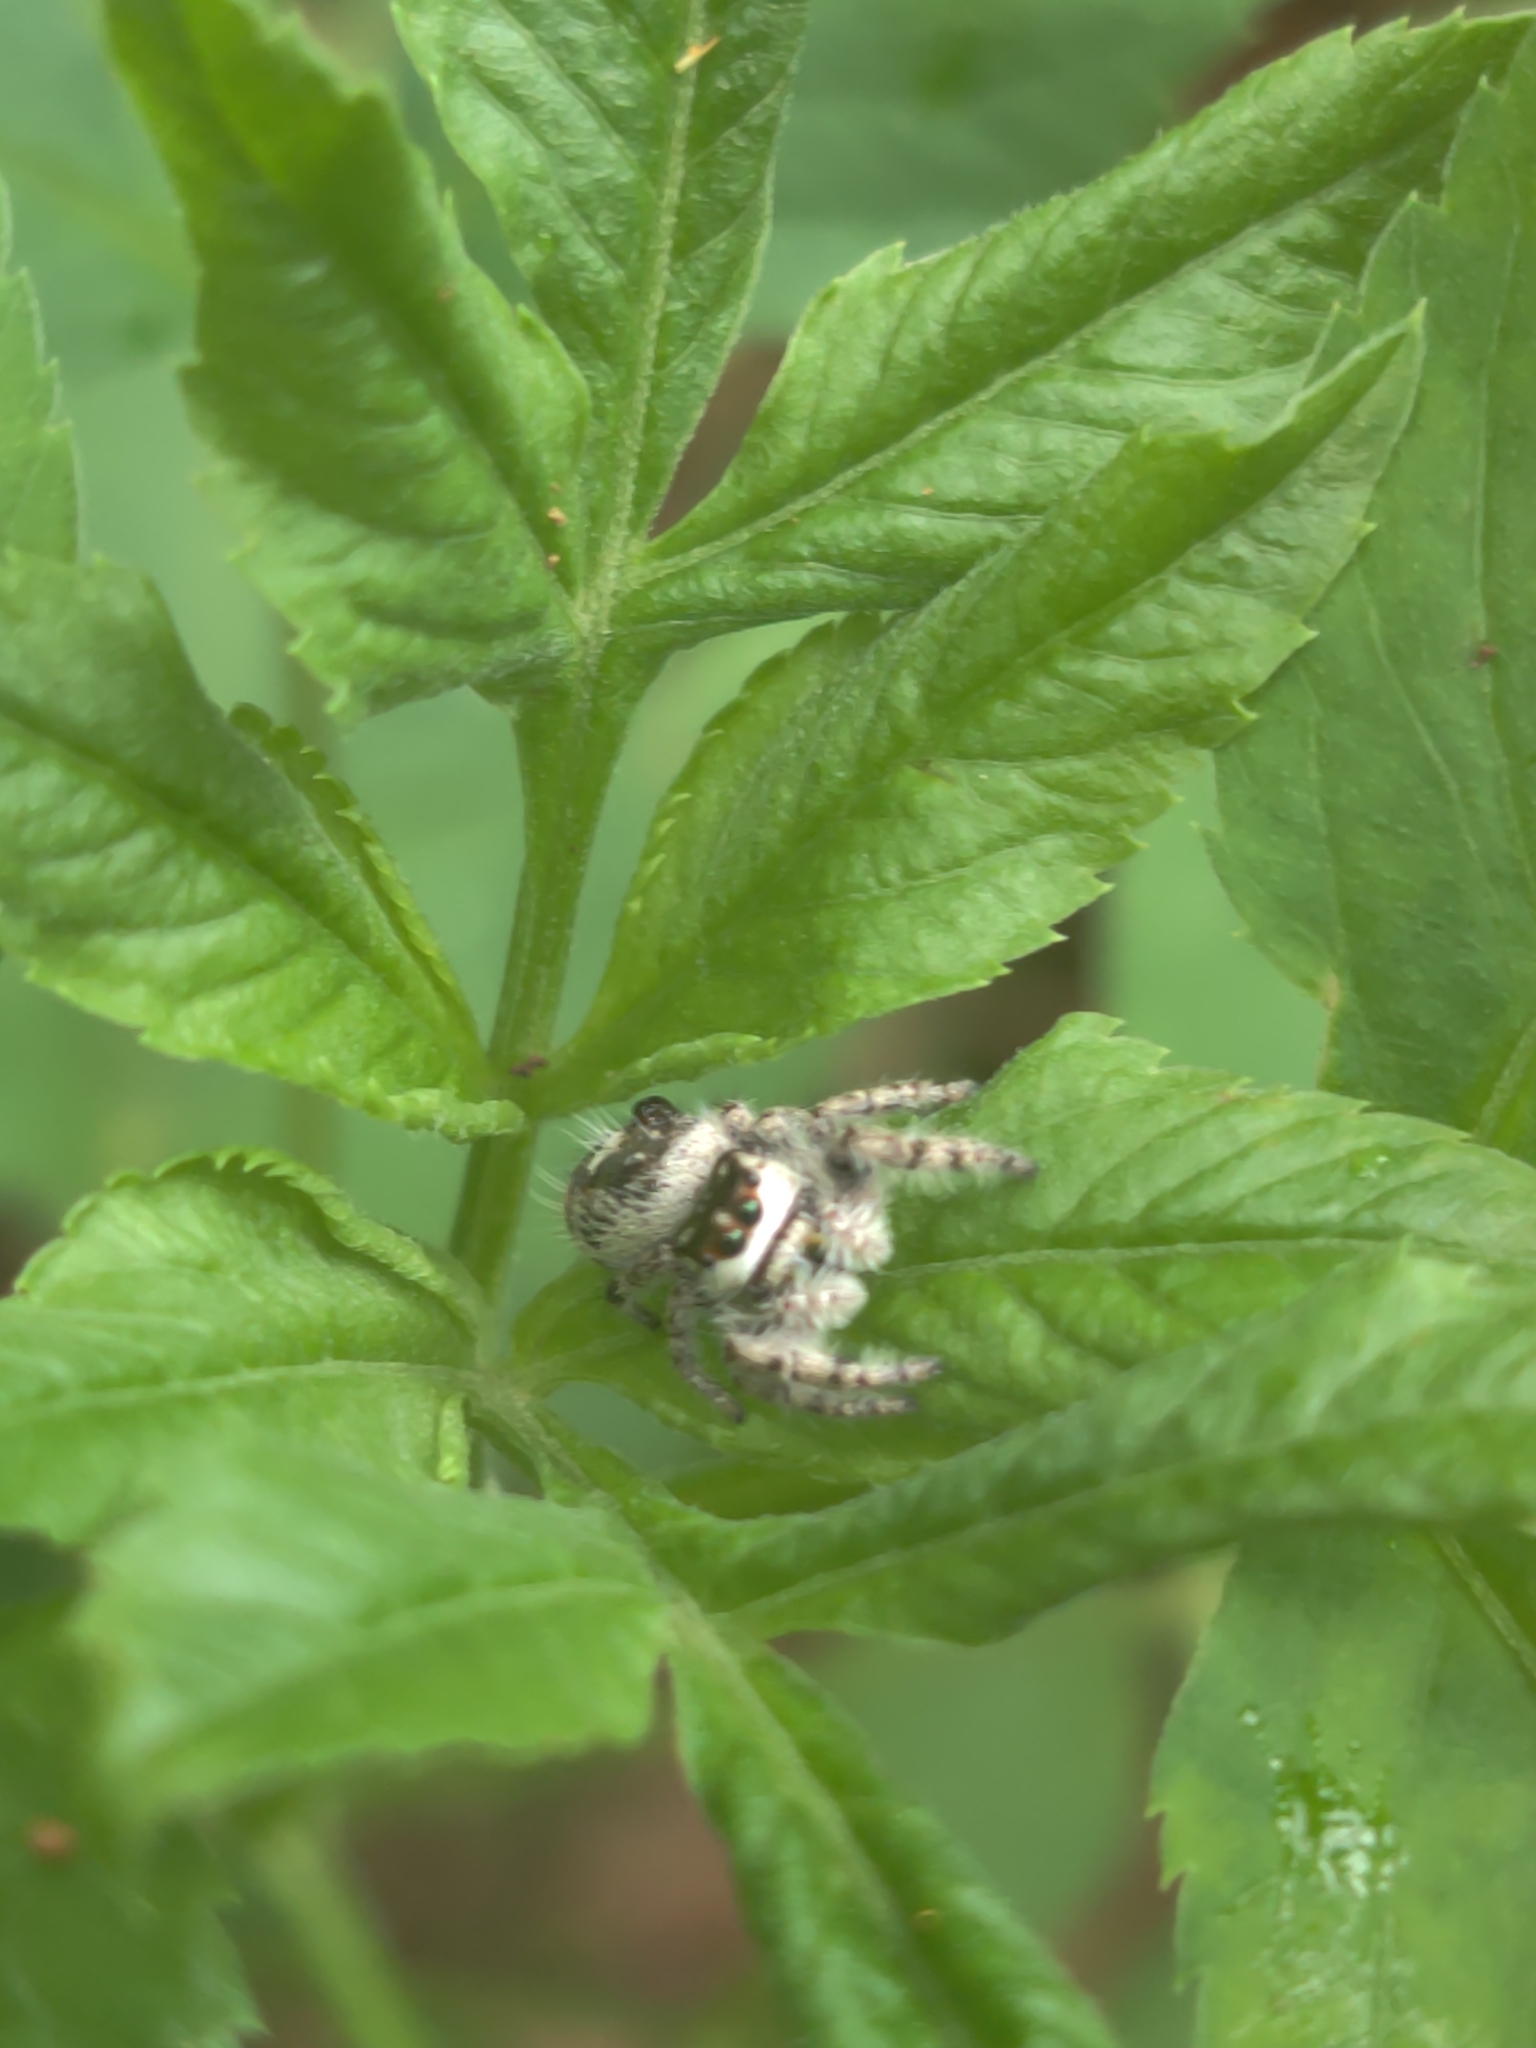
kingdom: Animalia
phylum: Arthropoda
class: Arachnida
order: Araneae
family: Salticidae
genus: Phidippus
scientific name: Phidippus otiosus
